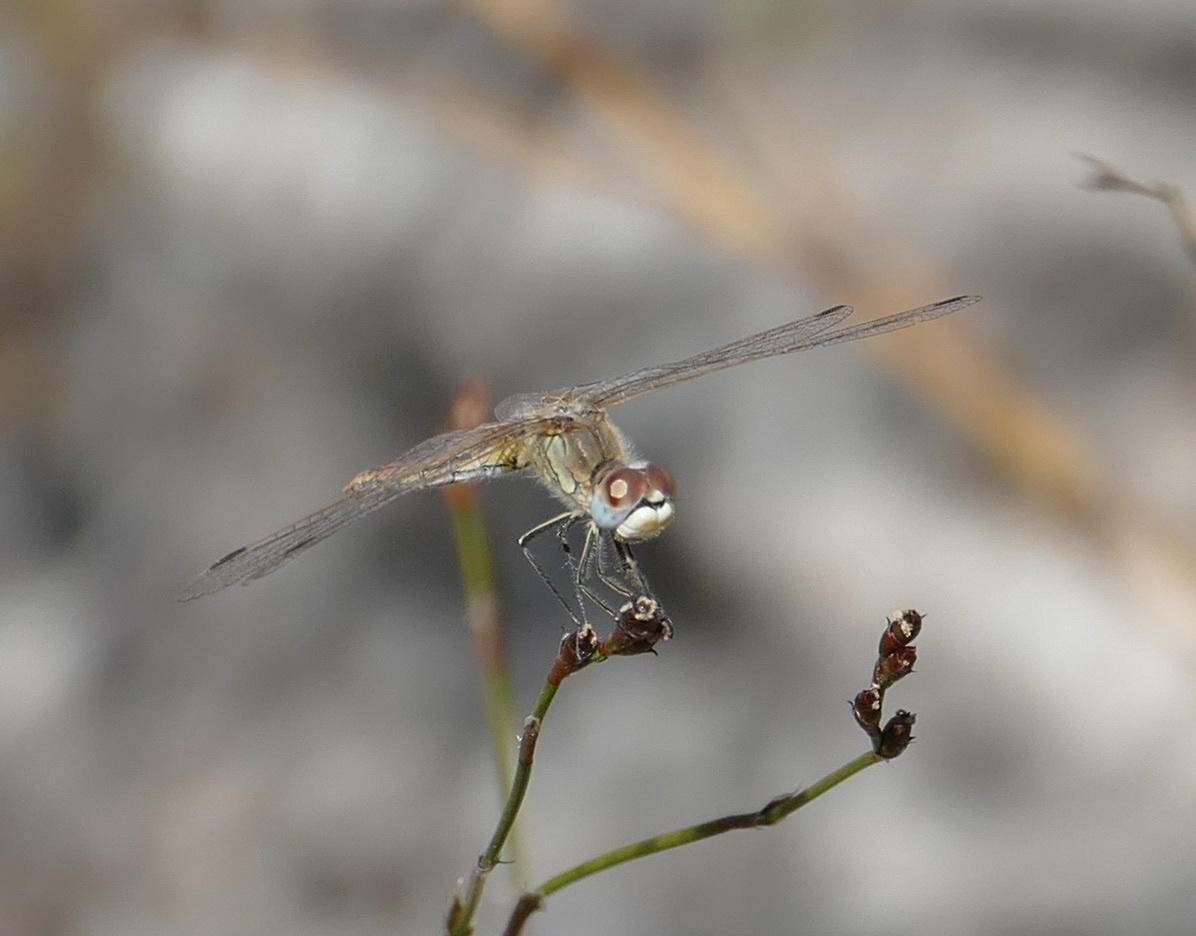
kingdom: Animalia
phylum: Arthropoda
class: Insecta
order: Odonata
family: Libellulidae
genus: Sympetrum
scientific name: Sympetrum fonscolombii
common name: Red-veined darter
